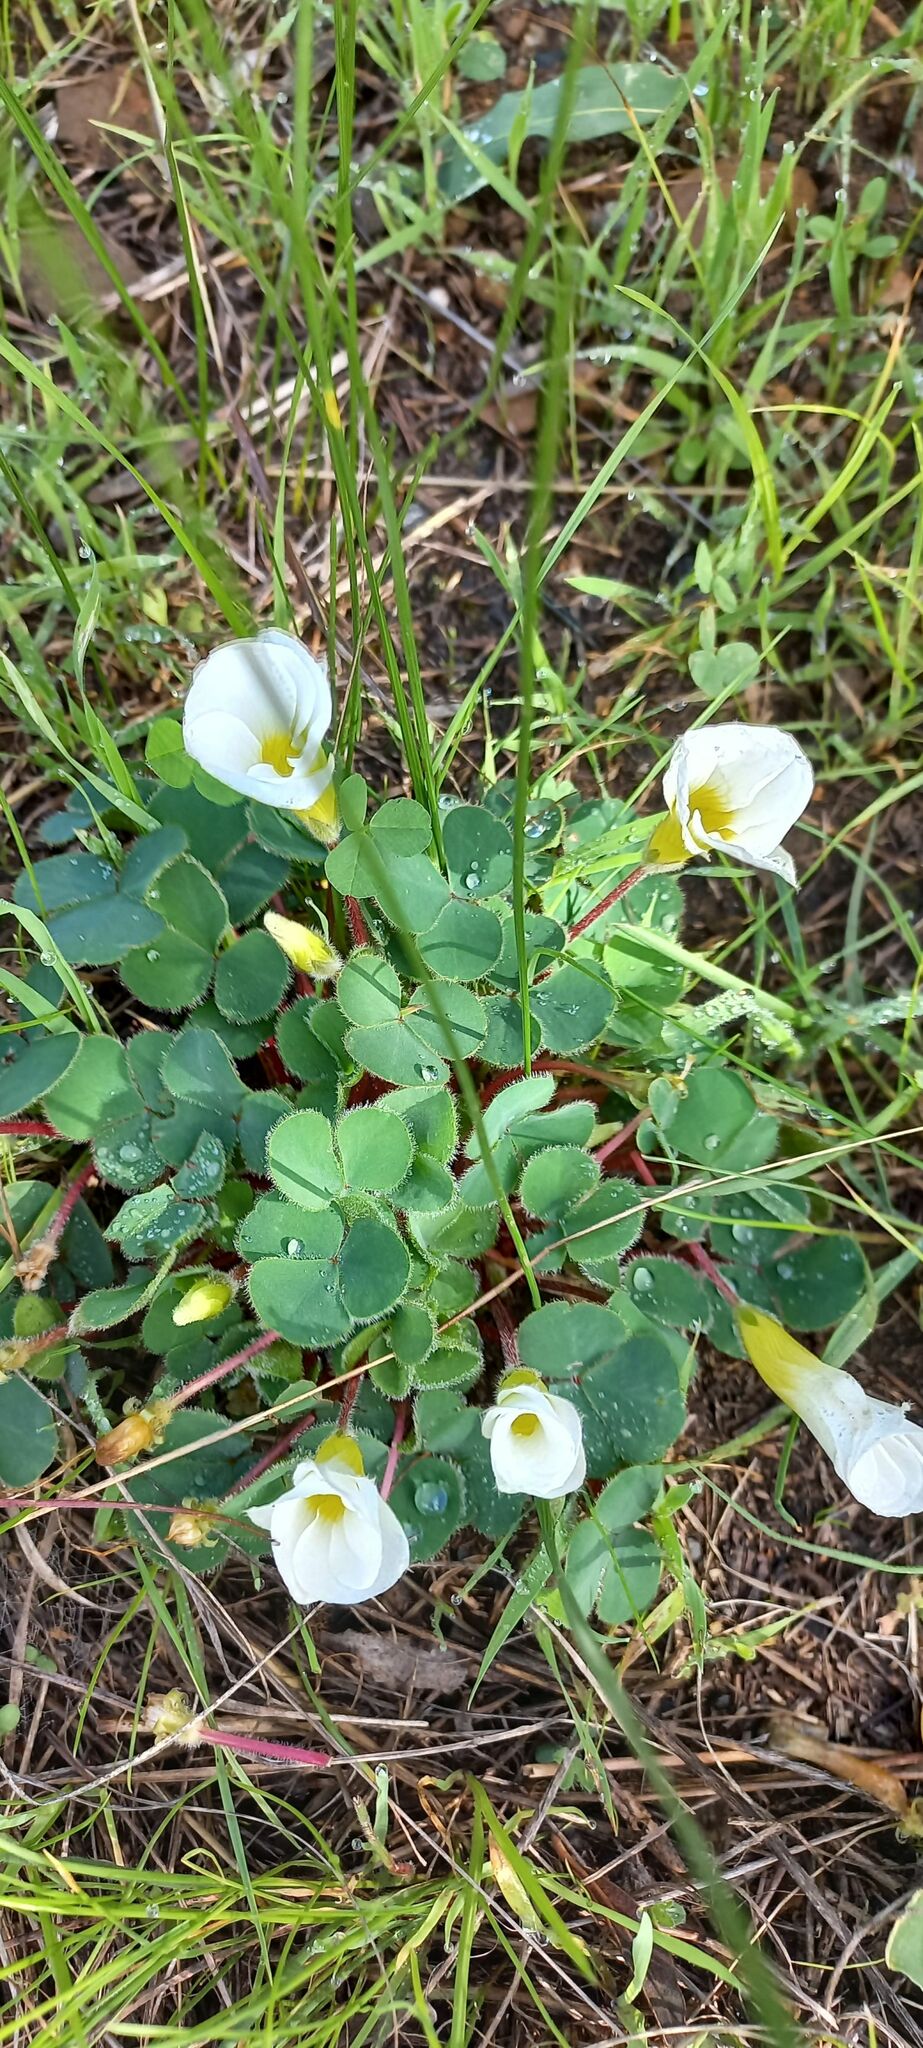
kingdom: Plantae
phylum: Tracheophyta
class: Magnoliopsida
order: Oxalidales
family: Oxalidaceae
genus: Oxalis
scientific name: Oxalis purpurea
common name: Purple woodsorrel
